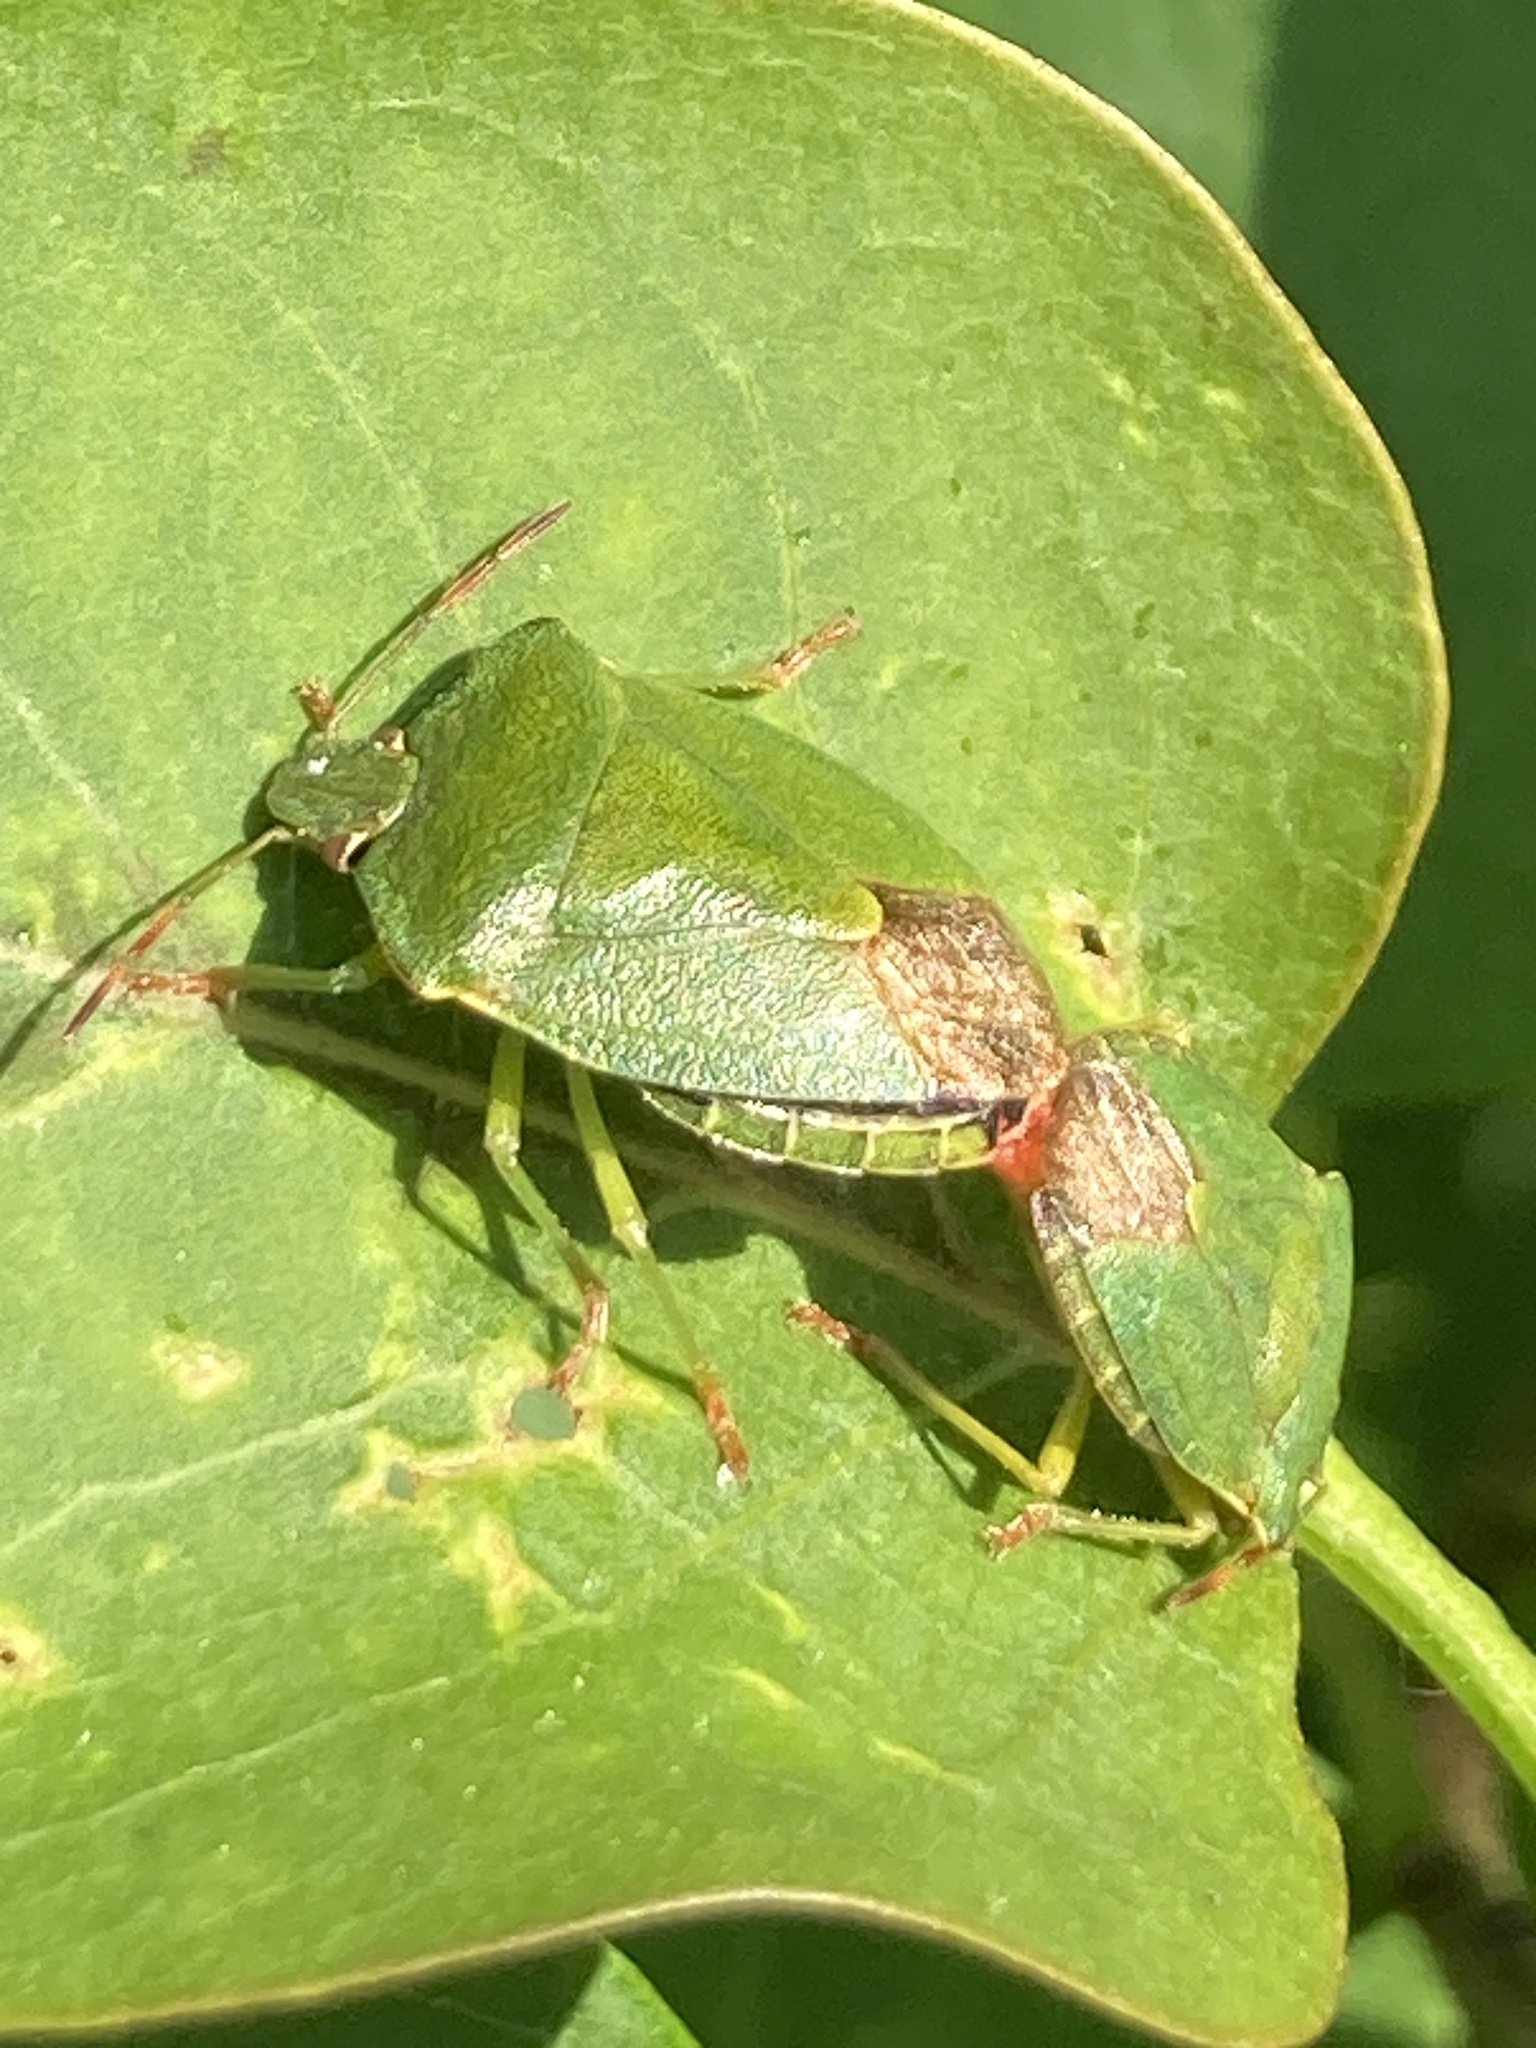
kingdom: Animalia
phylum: Arthropoda
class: Insecta
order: Hemiptera
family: Pentatomidae
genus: Palomena
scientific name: Palomena prasina
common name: Green shieldbug
